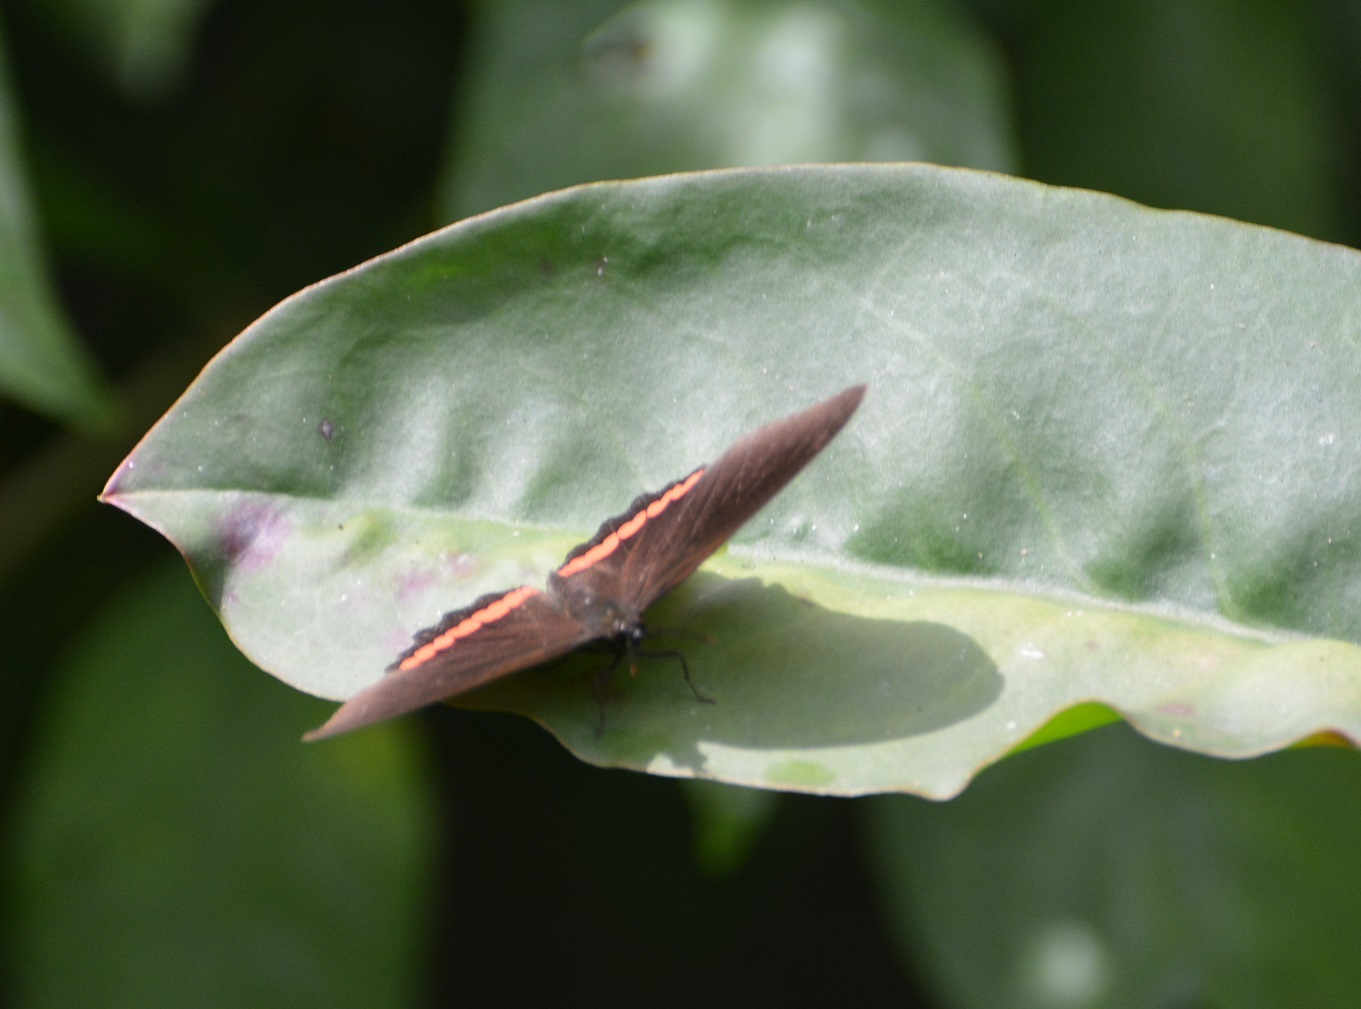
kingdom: Animalia
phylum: Arthropoda
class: Insecta
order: Lepidoptera
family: Nymphalidae
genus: Biblis
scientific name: Biblis aganisa
